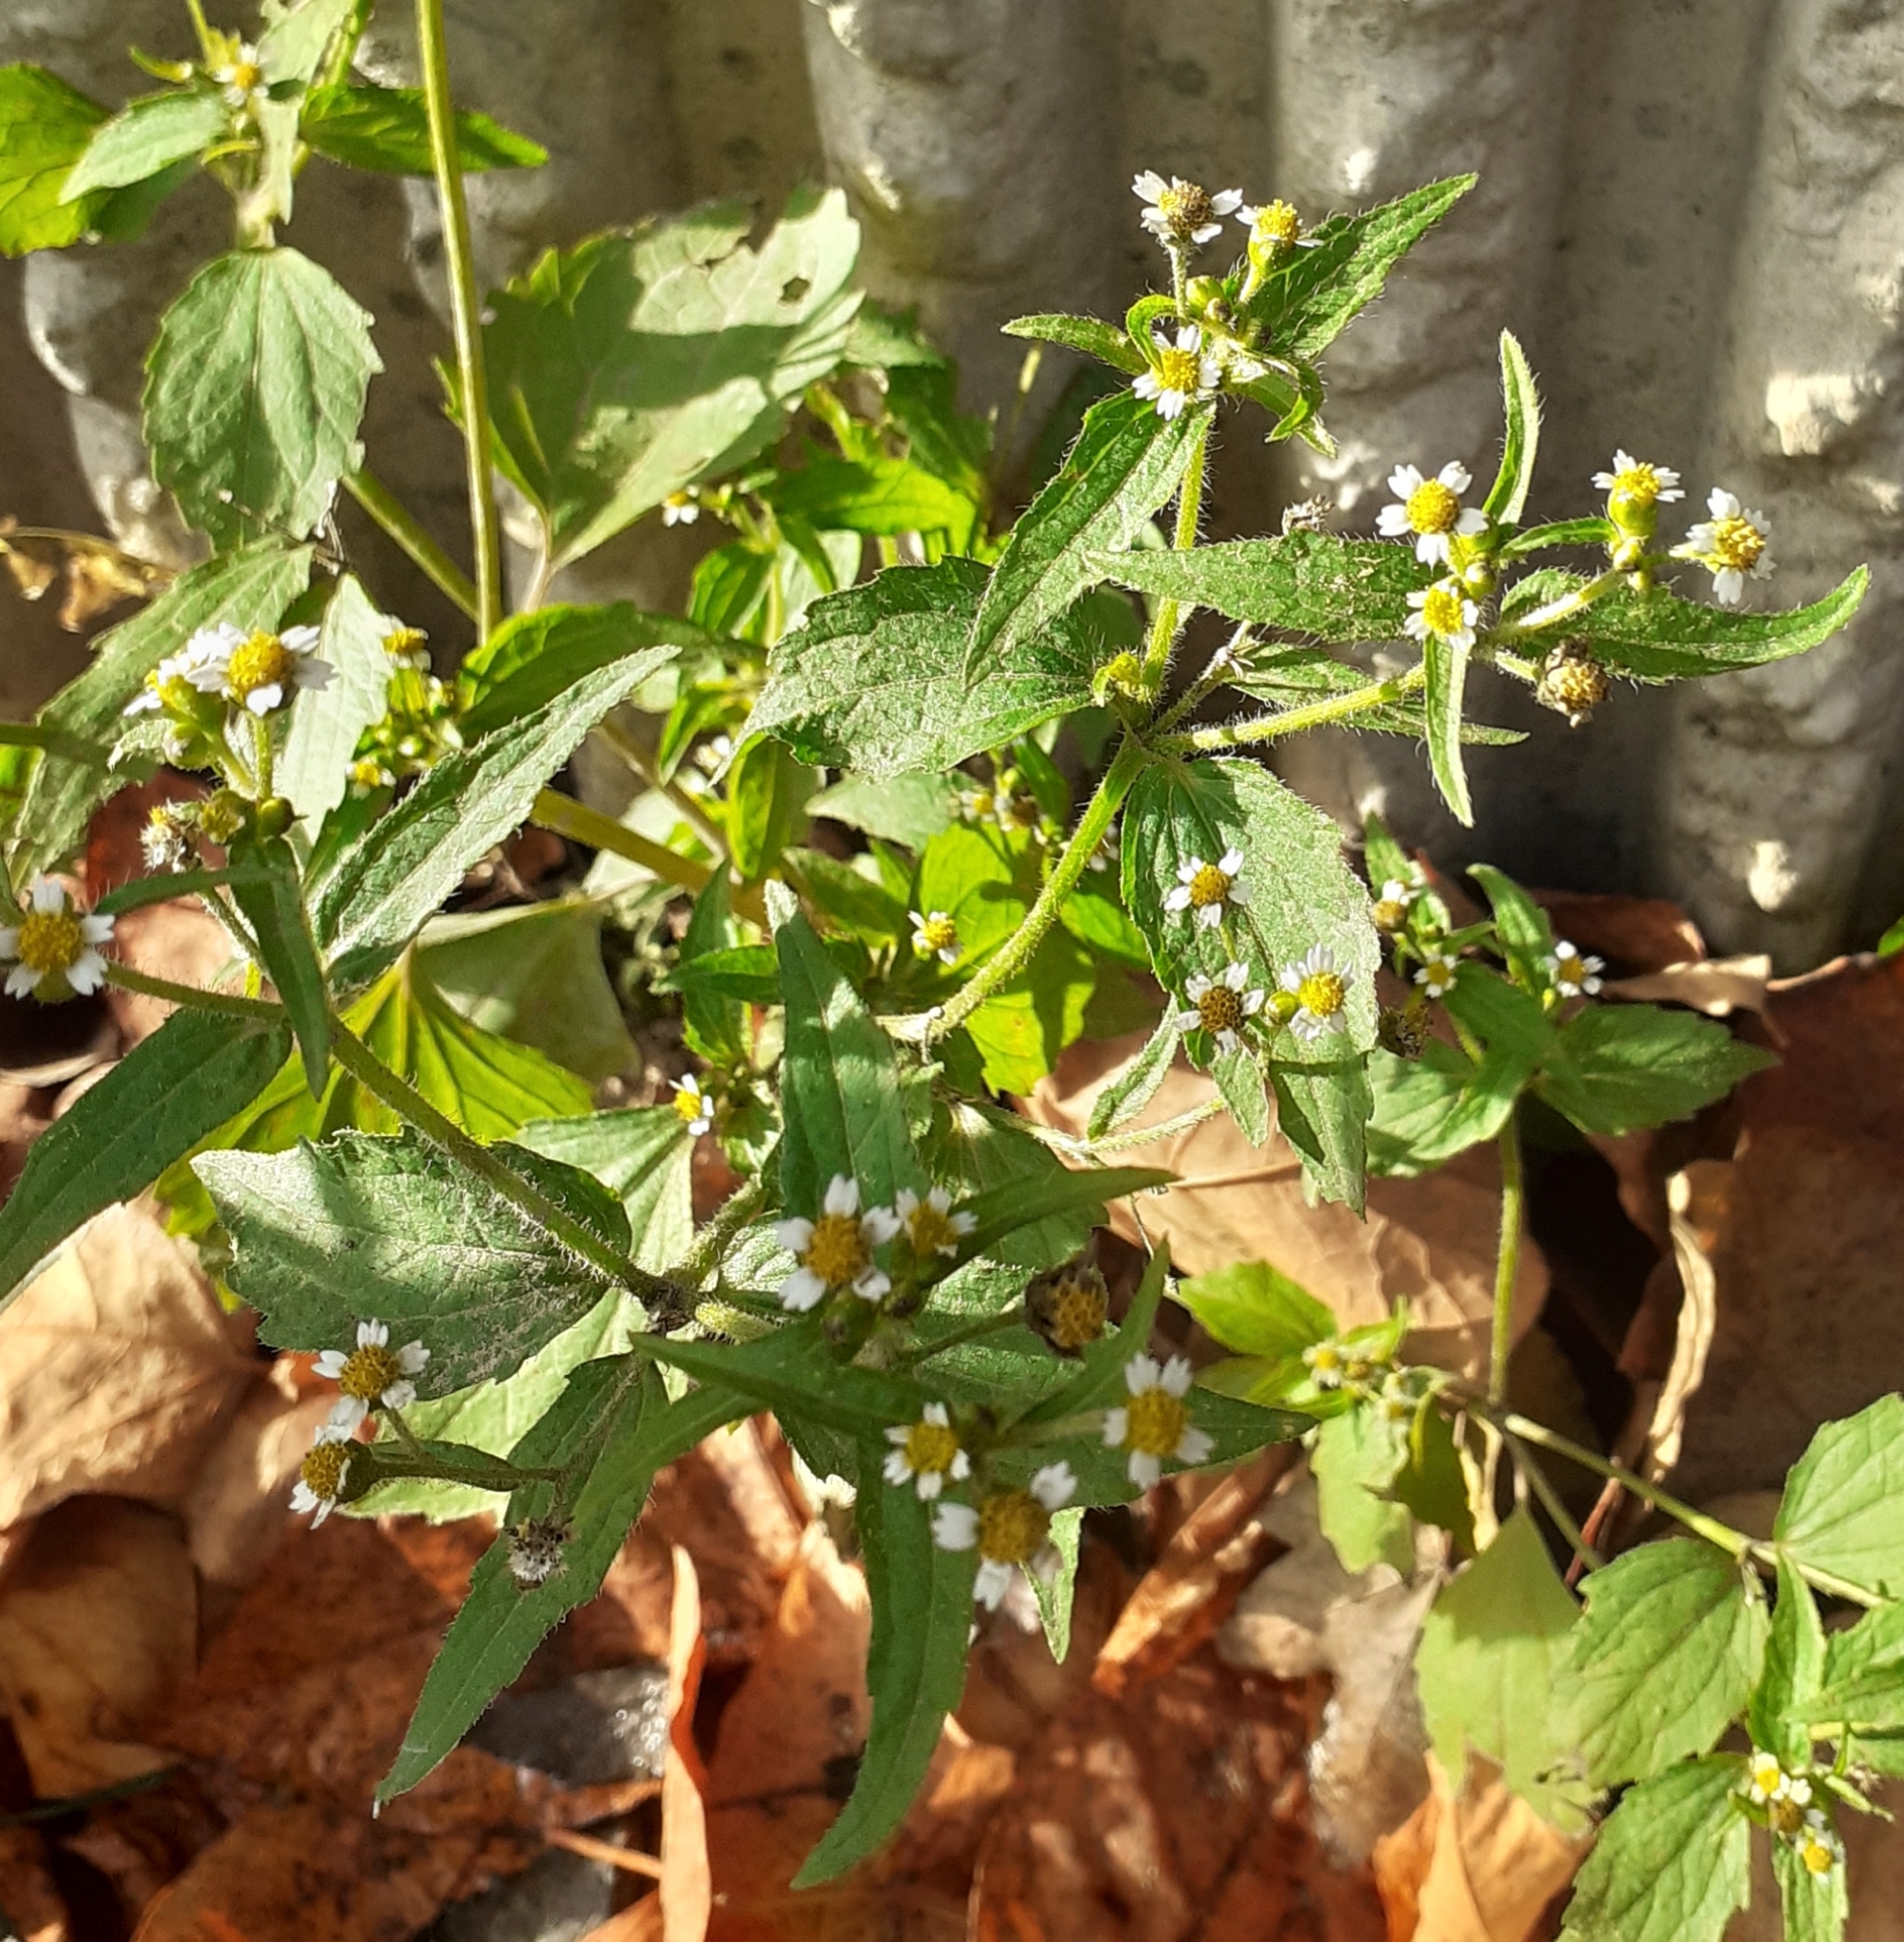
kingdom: Plantae
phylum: Tracheophyta
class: Magnoliopsida
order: Asterales
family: Asteraceae
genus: Galinsoga
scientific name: Galinsoga quadriradiata
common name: Shaggy soldier
